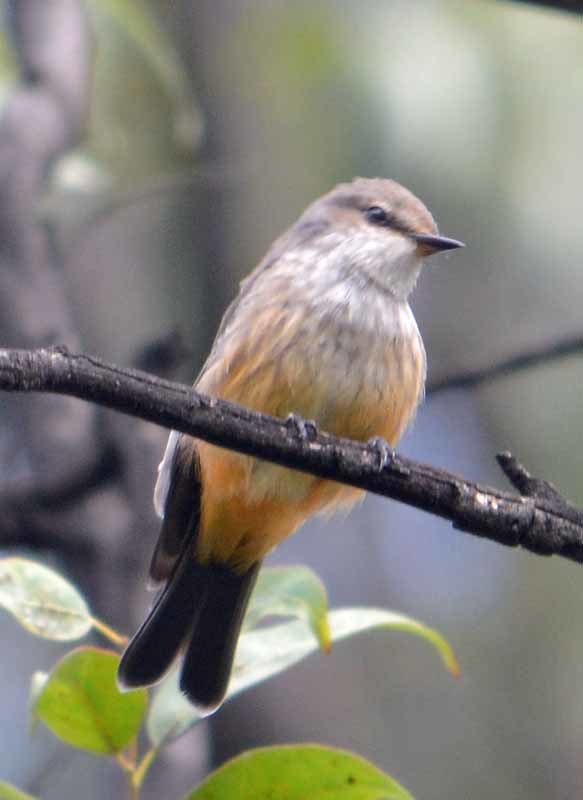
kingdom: Animalia
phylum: Chordata
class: Aves
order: Passeriformes
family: Tyrannidae
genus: Pyrocephalus
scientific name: Pyrocephalus rubinus
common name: Vermilion flycatcher
